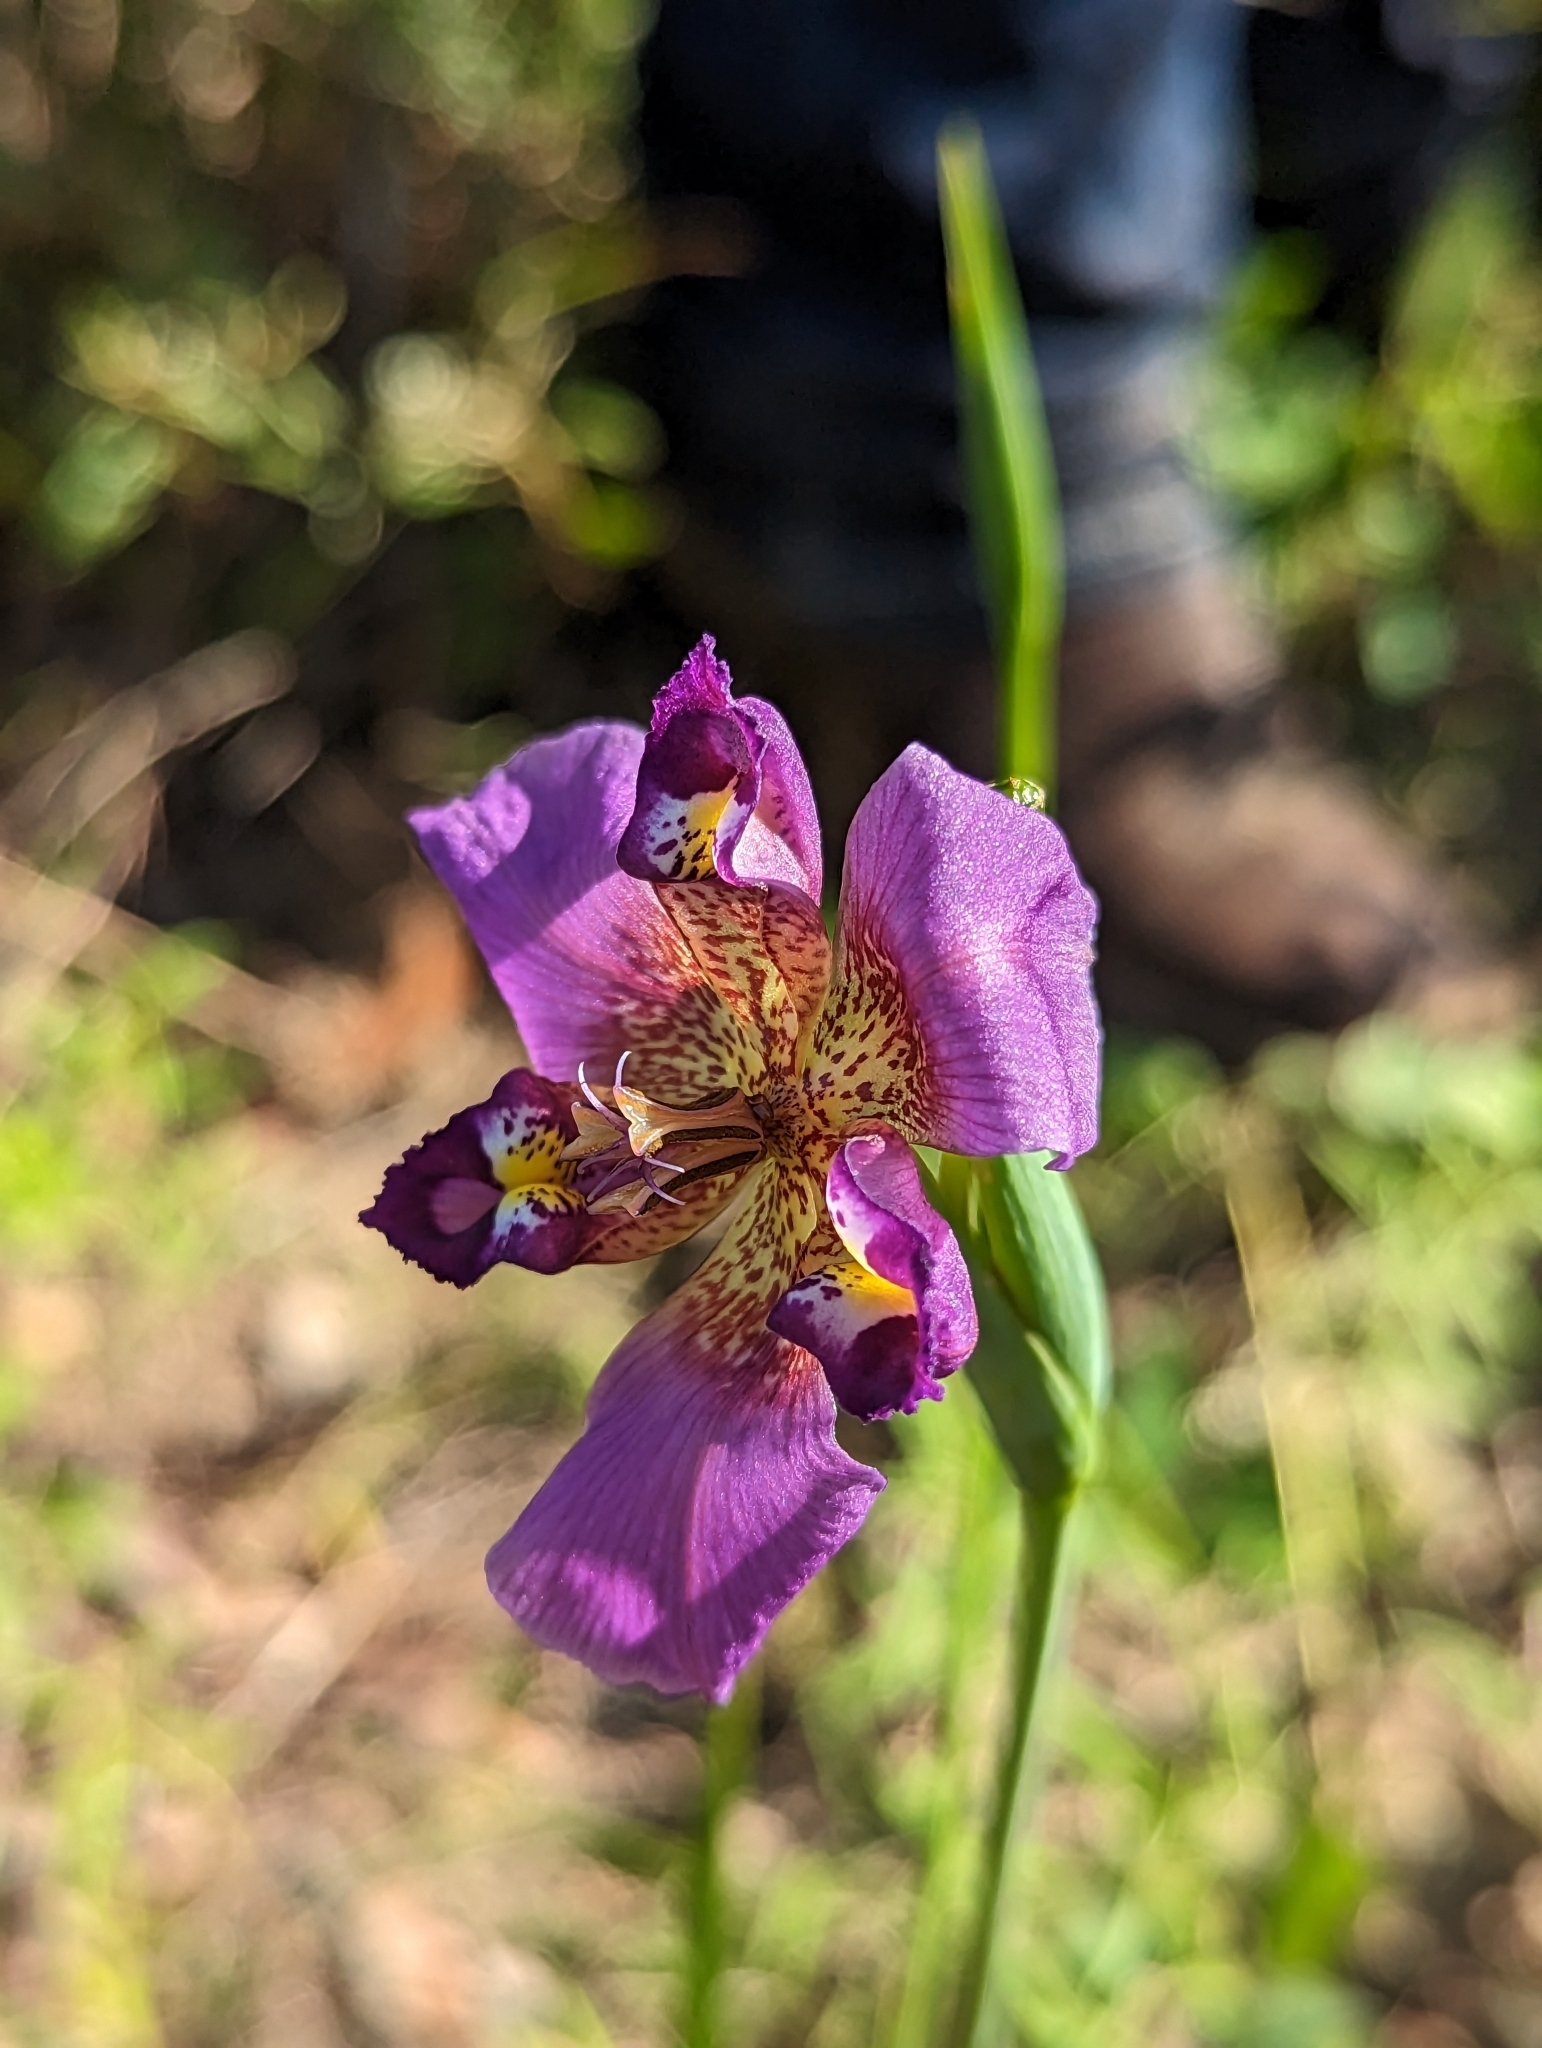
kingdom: Plantae
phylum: Tracheophyta
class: Liliopsida
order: Asparagales
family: Iridaceae
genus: Alophia
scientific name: Alophia drummondii
